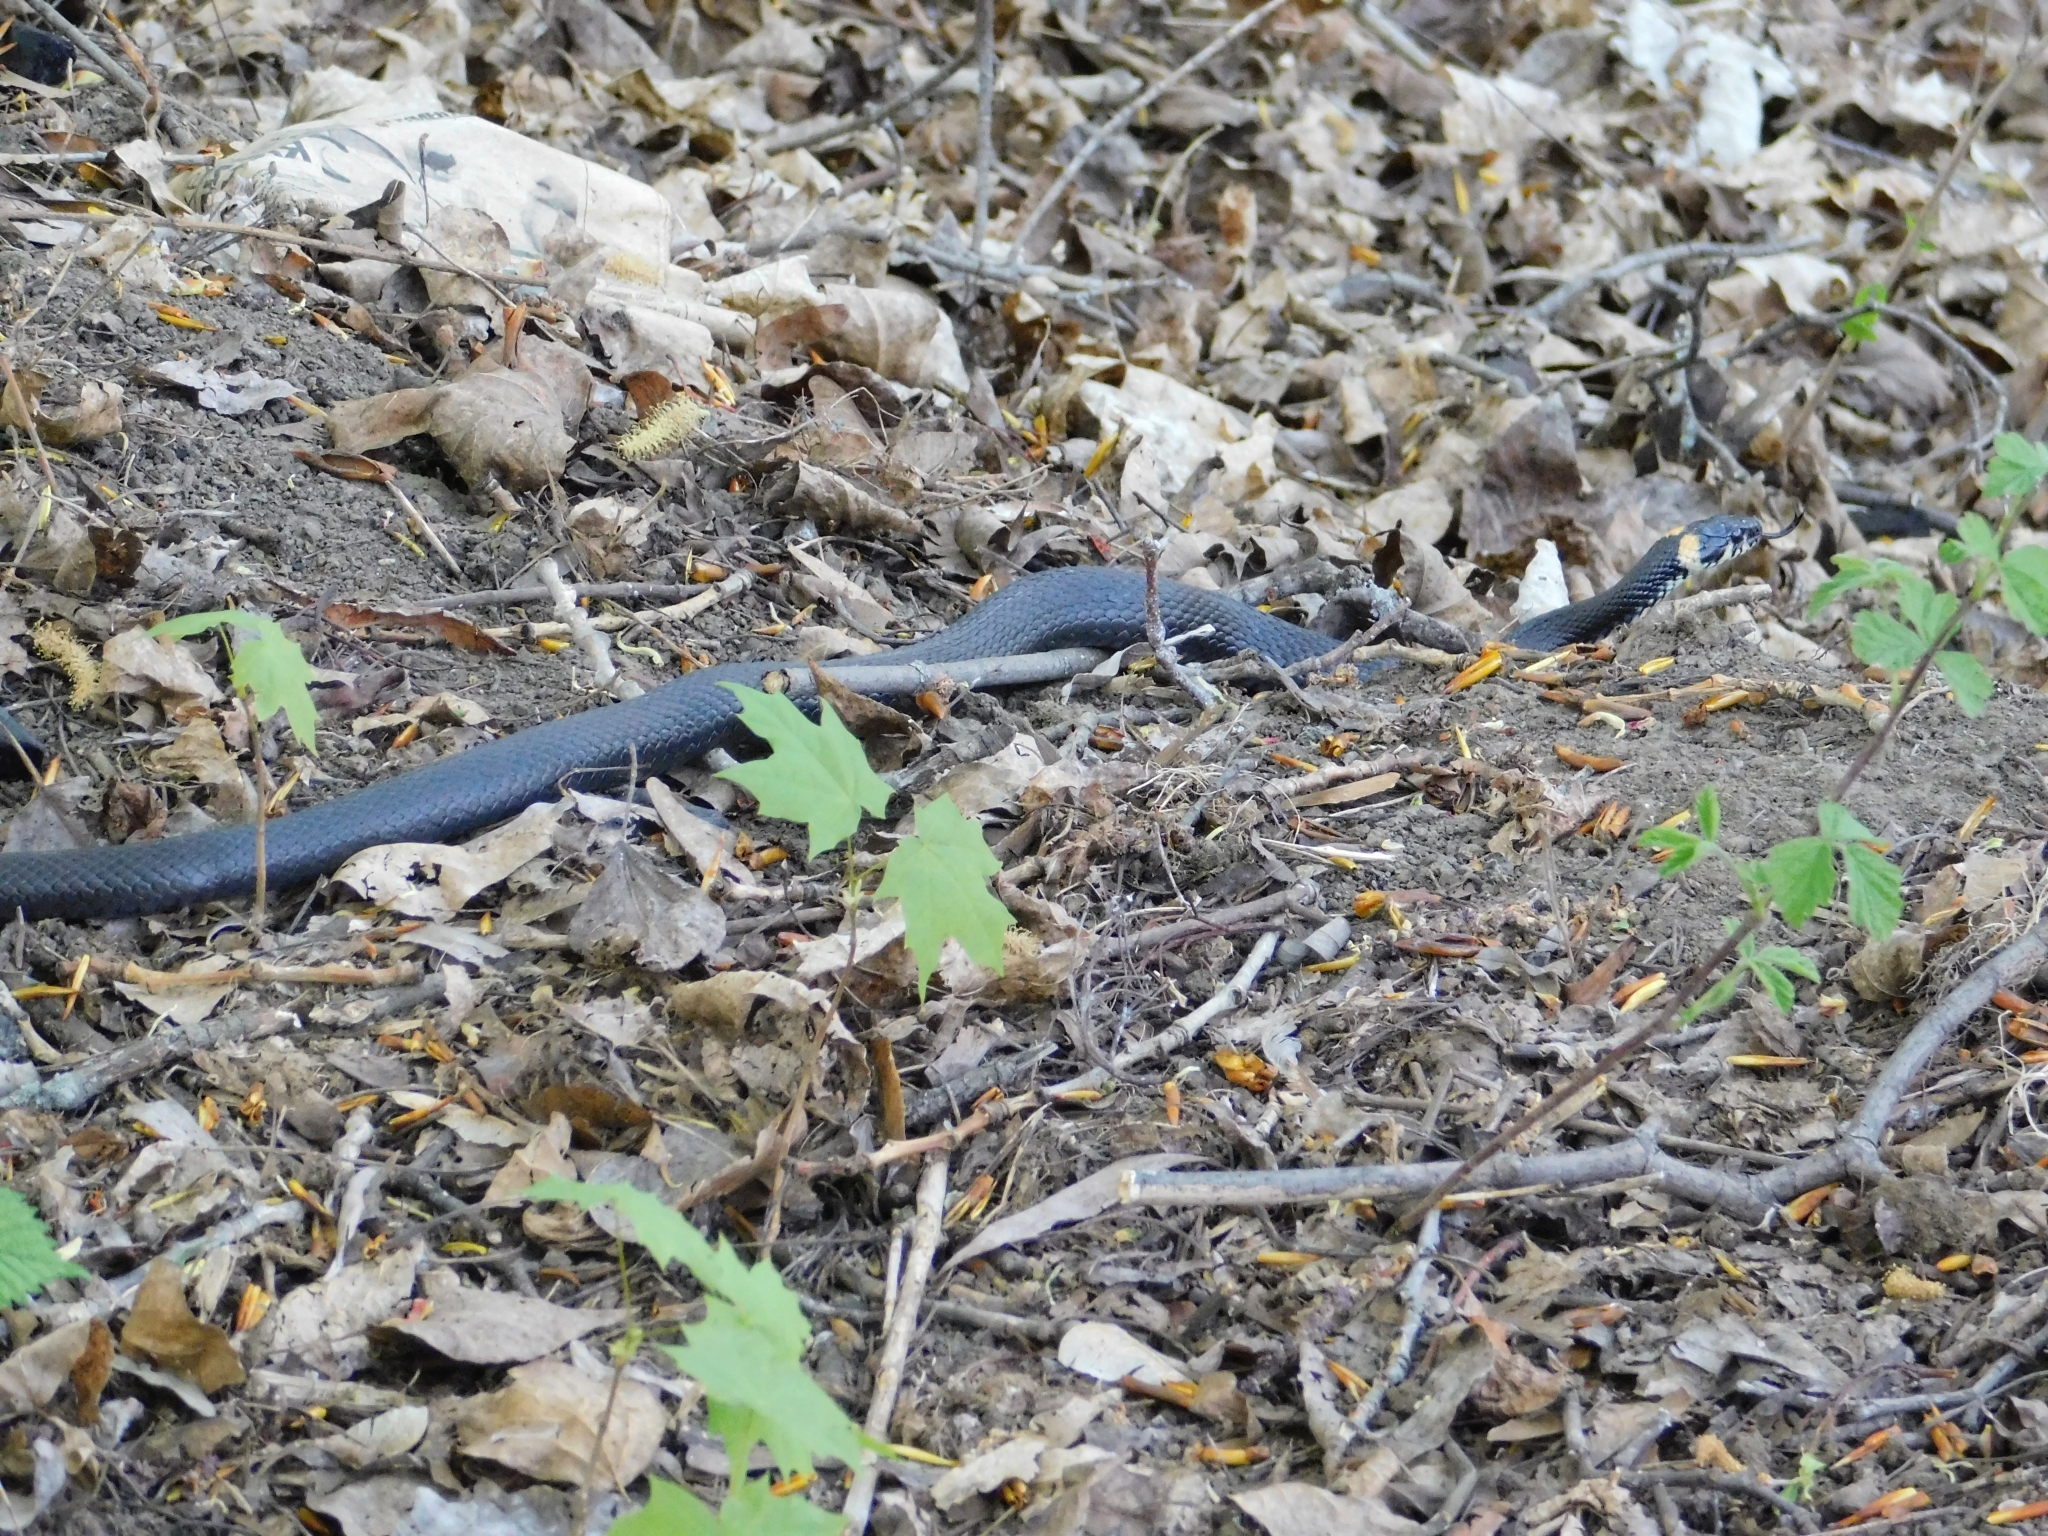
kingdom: Animalia
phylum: Chordata
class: Squamata
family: Colubridae
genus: Natrix
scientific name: Natrix natrix
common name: Grass snake
